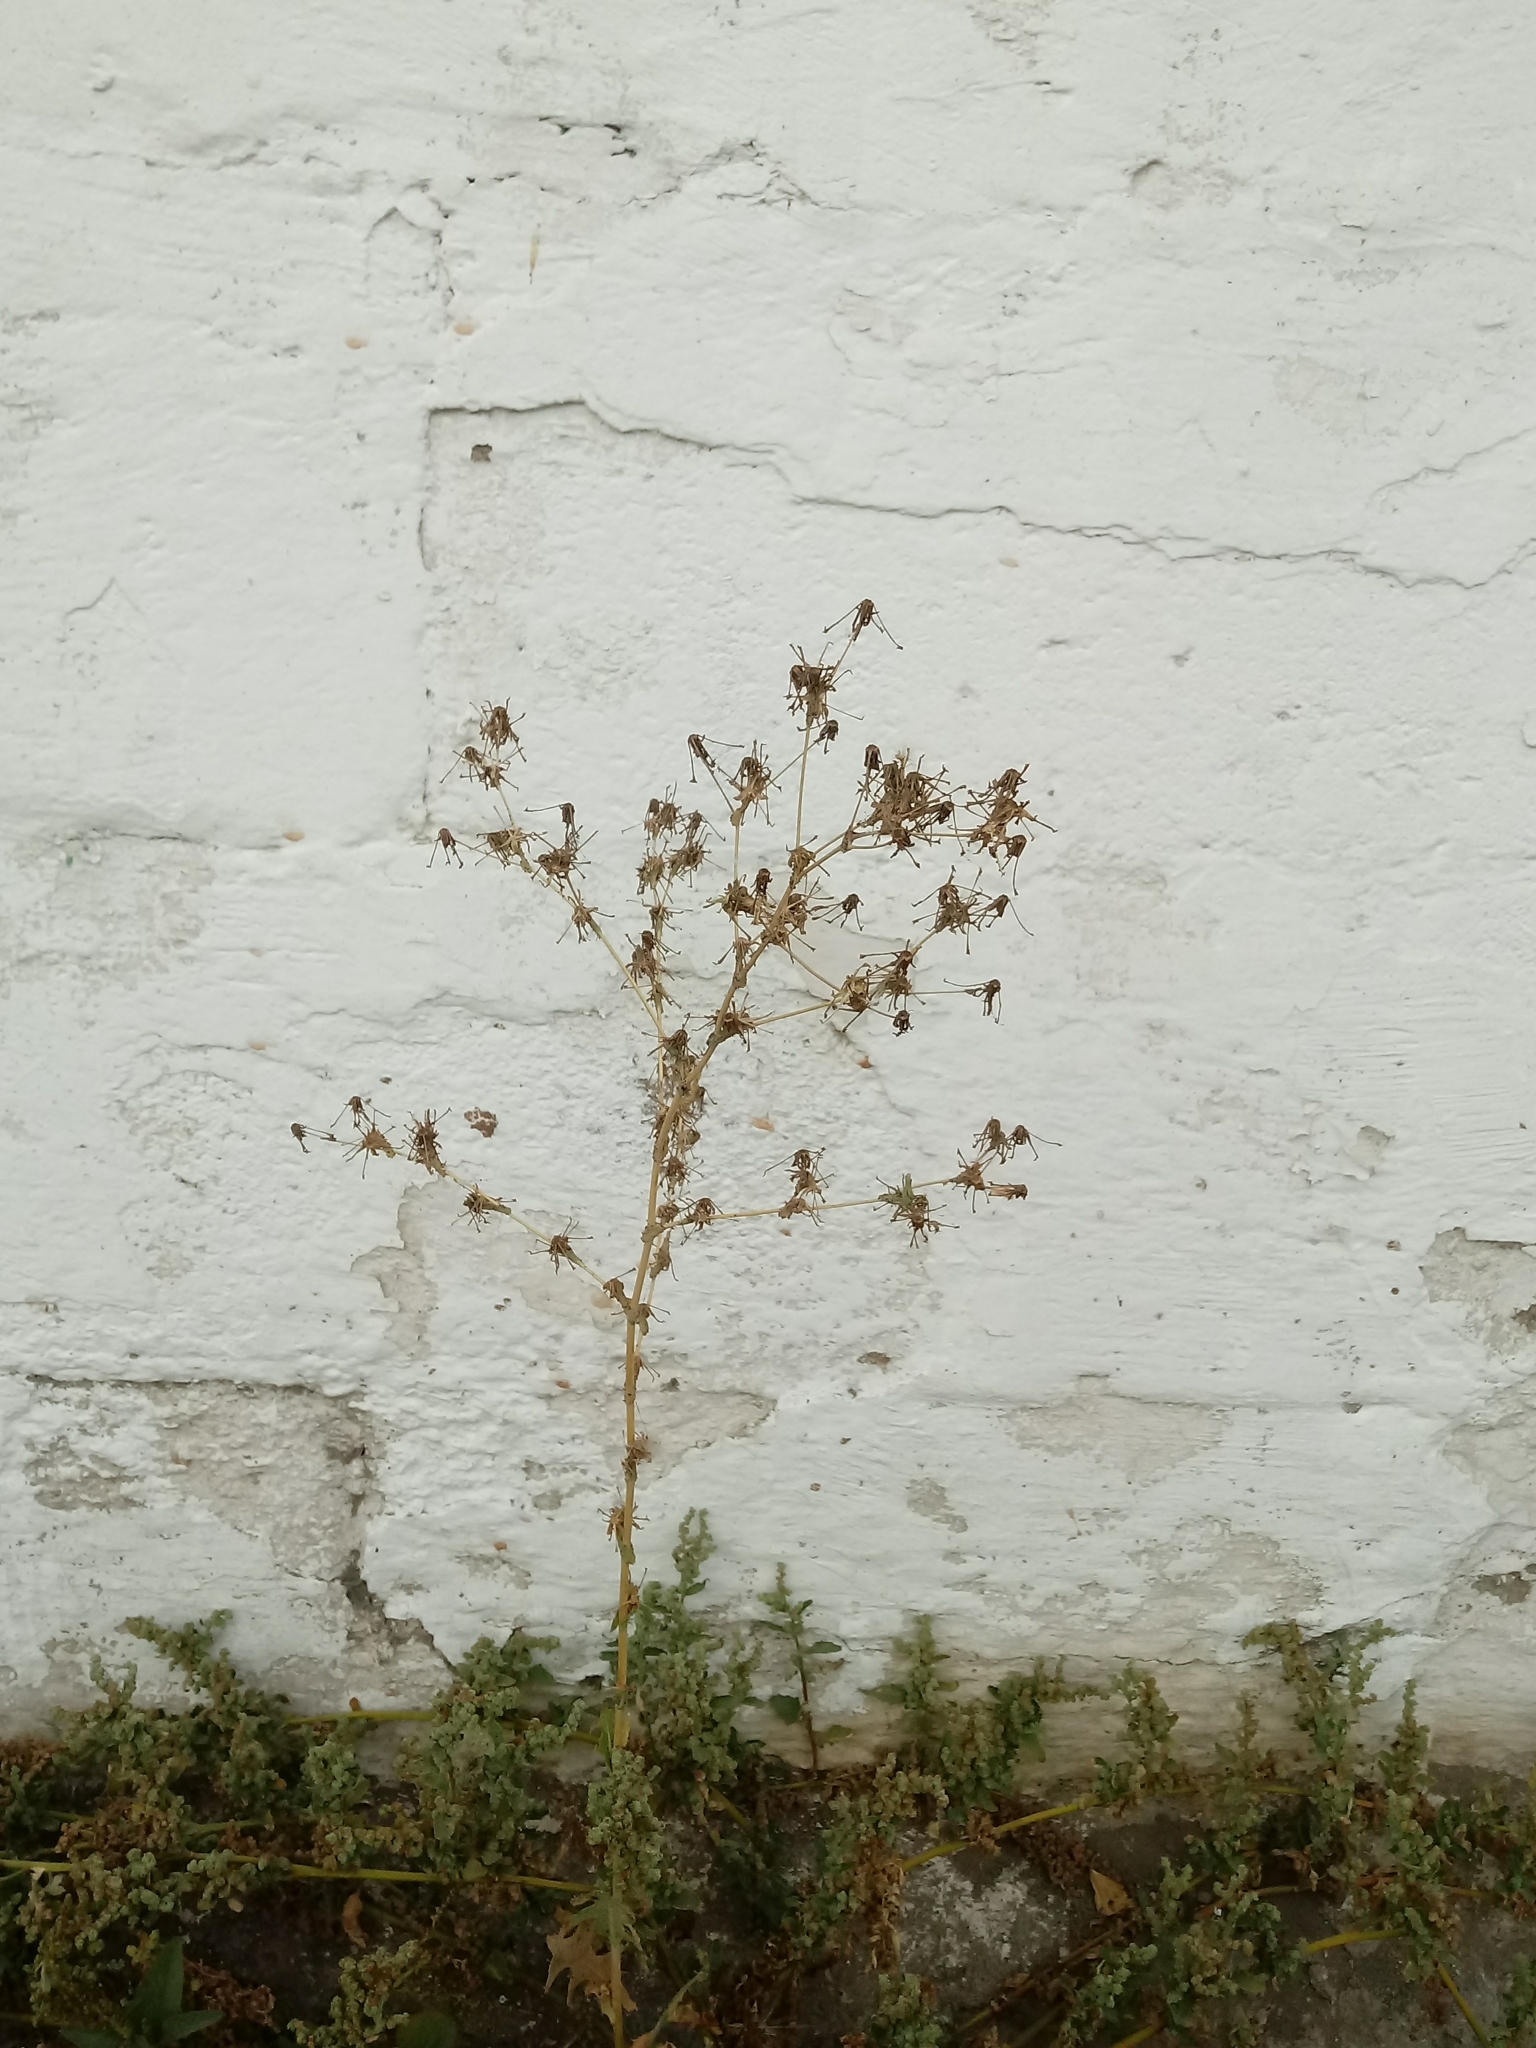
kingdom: Plantae
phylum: Tracheophyta
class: Magnoliopsida
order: Asterales
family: Asteraceae
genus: Lactuca
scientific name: Lactuca serriola
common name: Prickly lettuce
